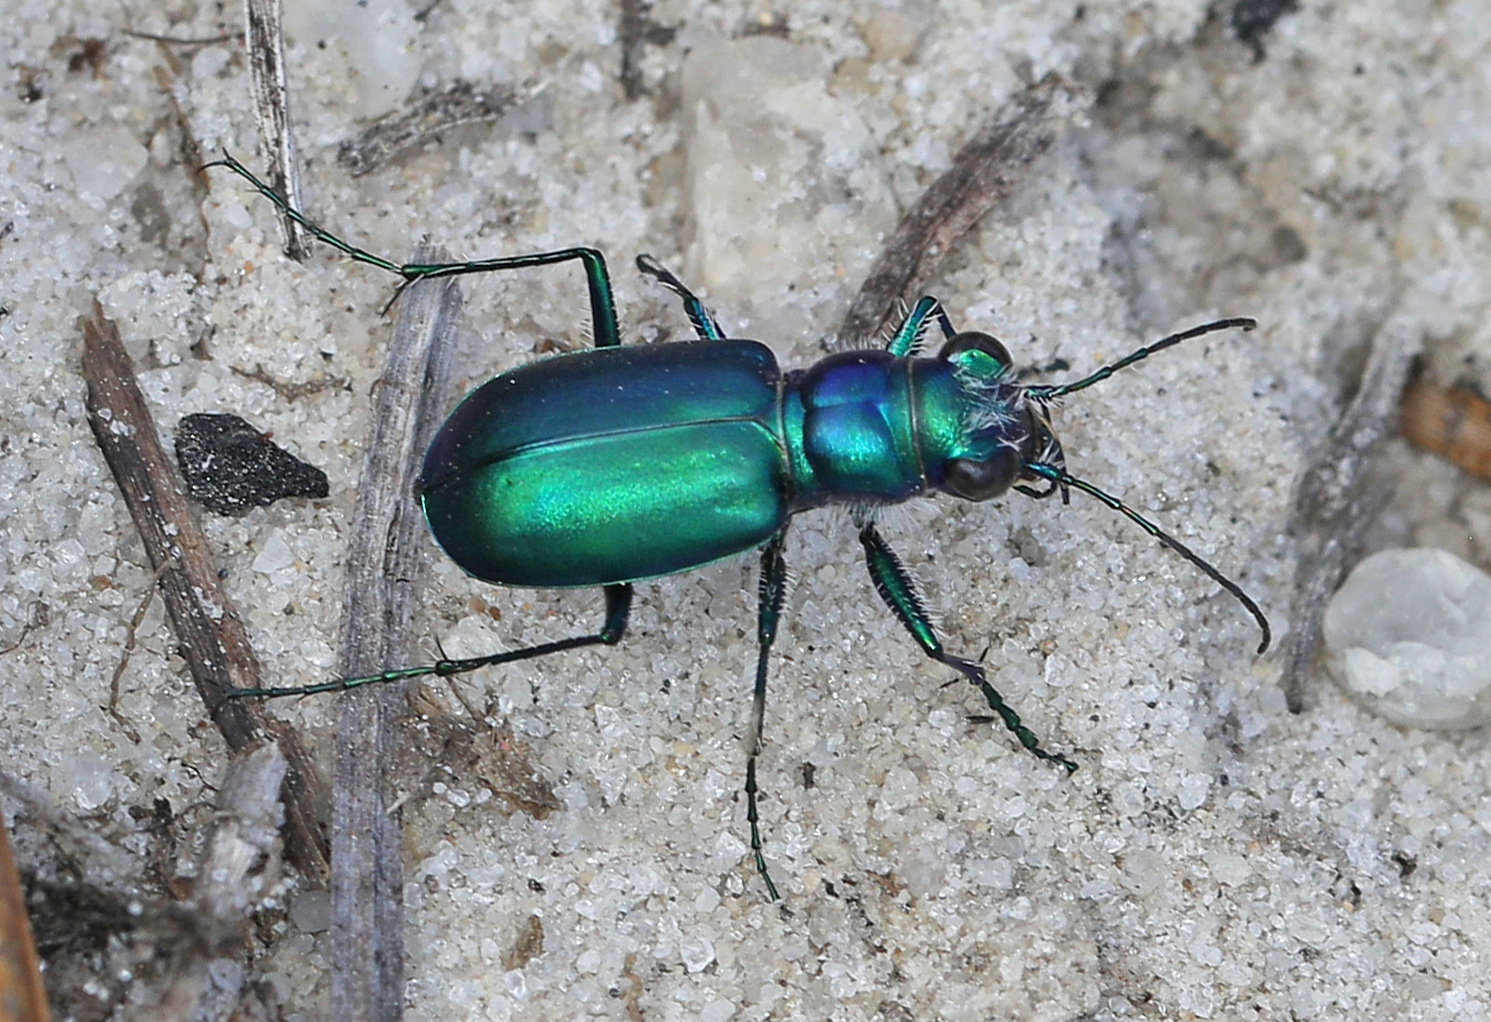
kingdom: Animalia
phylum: Arthropoda
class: Insecta
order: Coleoptera
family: Carabidae
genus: Cicindela
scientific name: Cicindela scutellaris
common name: Festive tiger beetle
